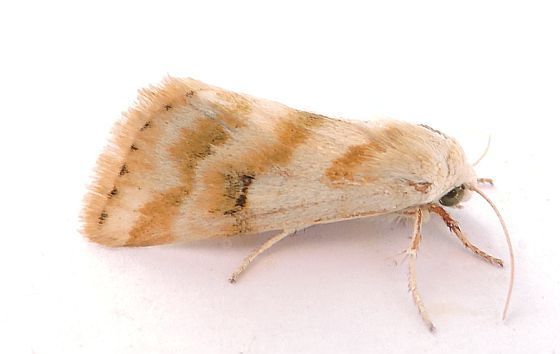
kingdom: Animalia
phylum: Arthropoda
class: Insecta
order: Lepidoptera
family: Noctuidae
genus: Schinia
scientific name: Schinia obliqua
